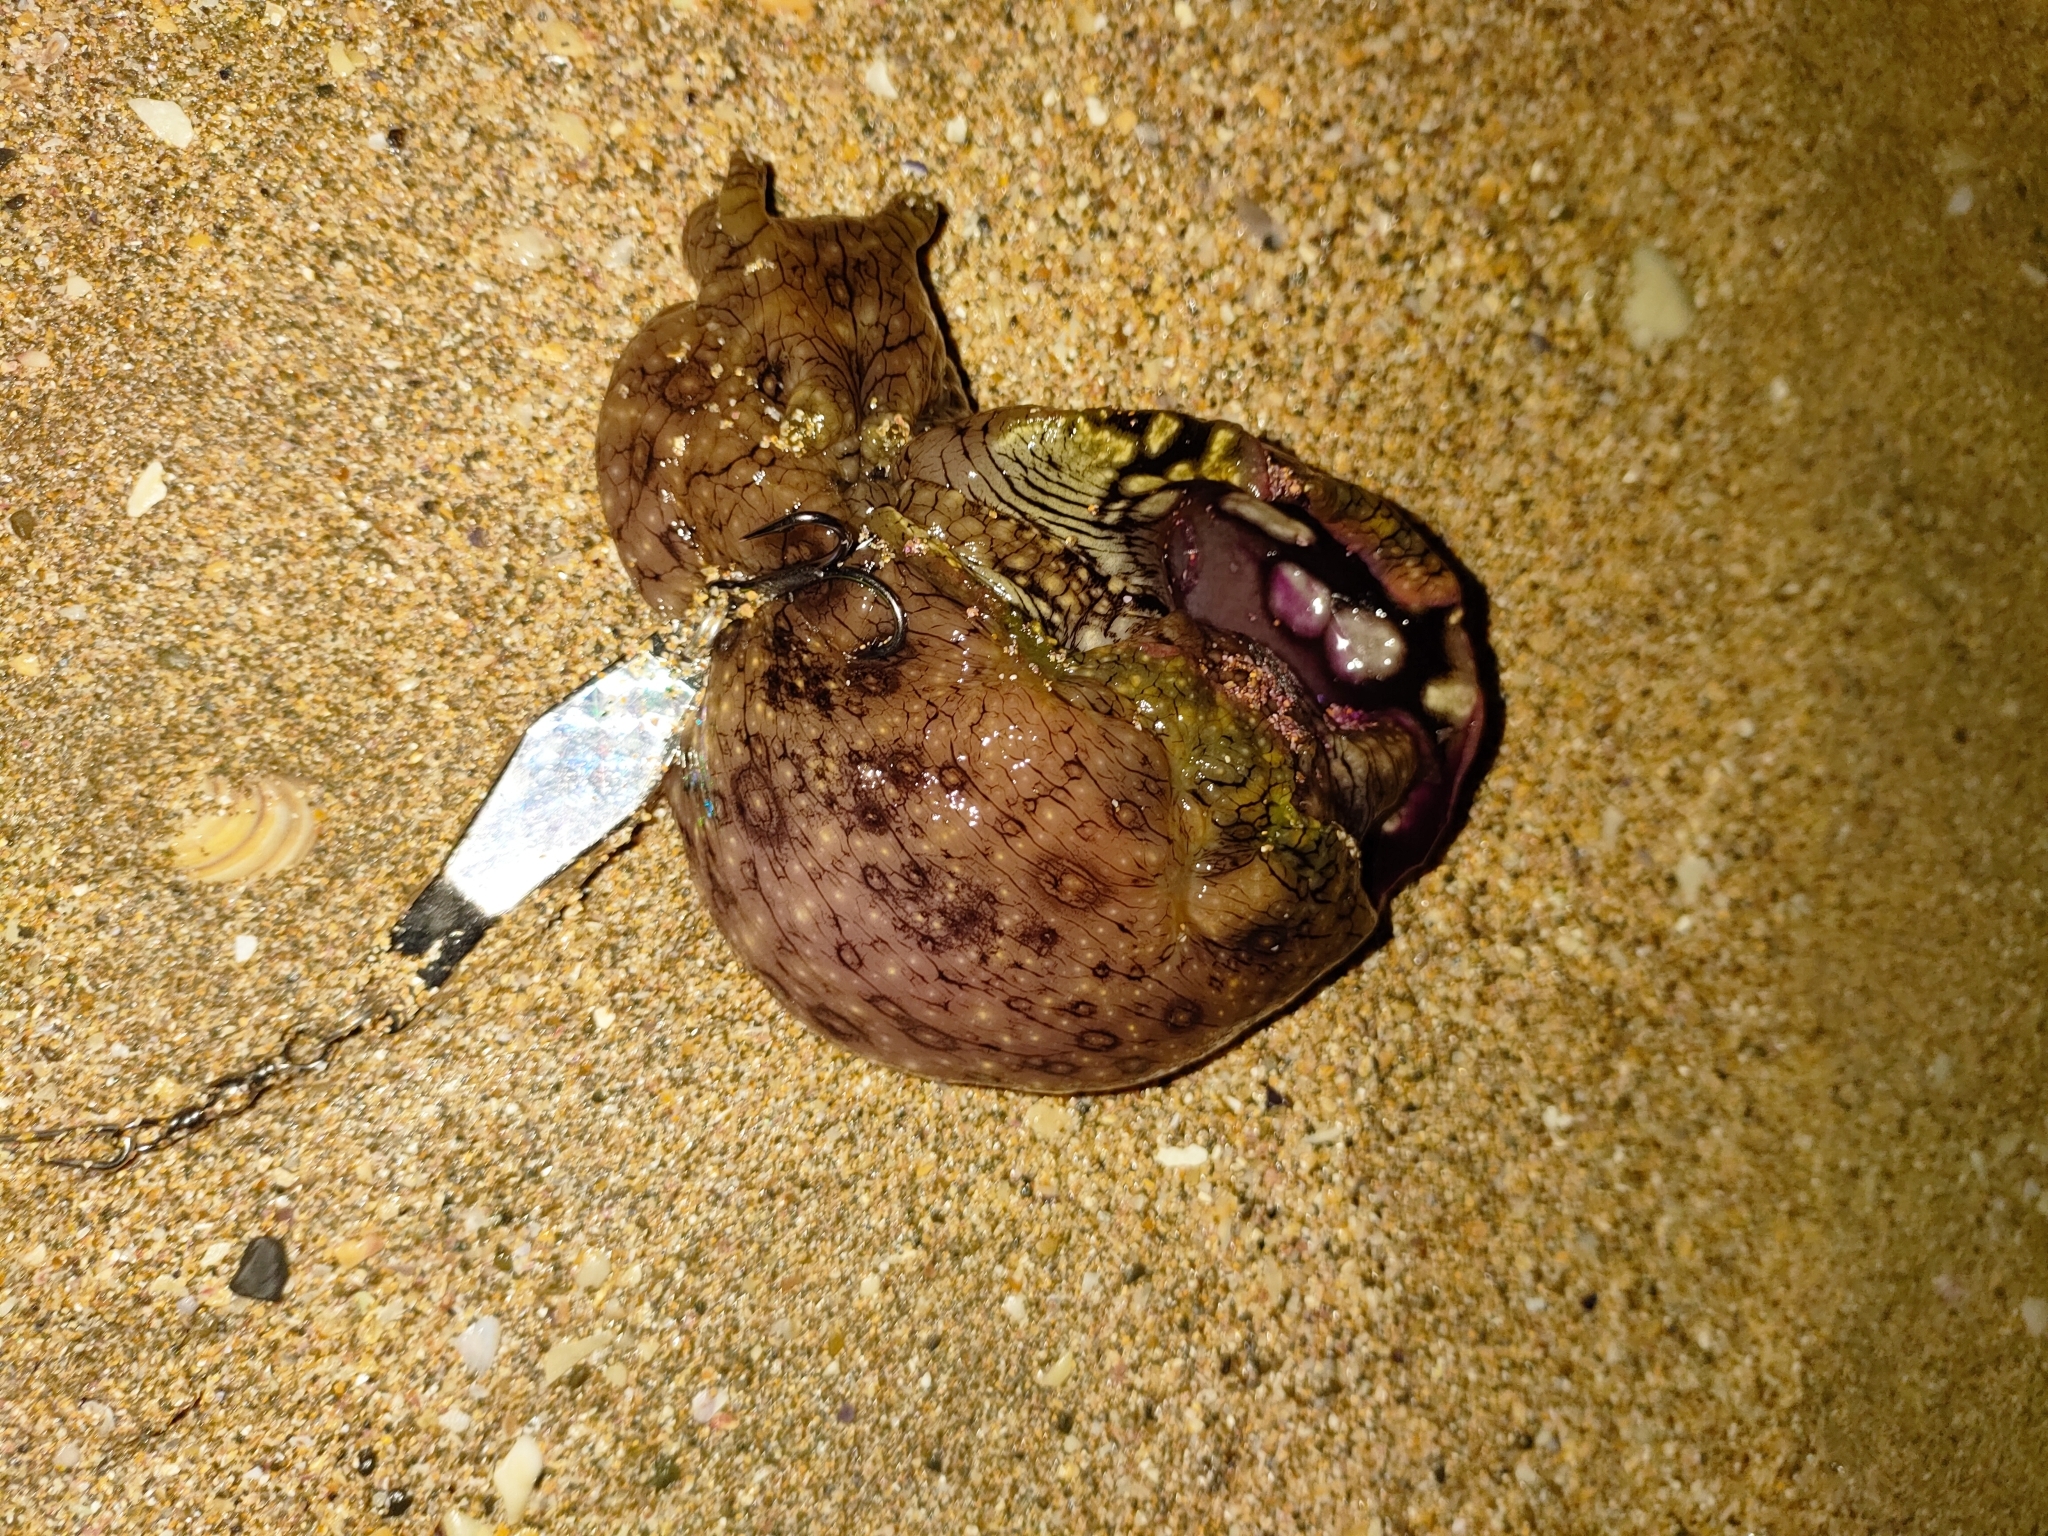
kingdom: Animalia
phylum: Mollusca
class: Gastropoda
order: Aplysiida
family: Aplysiidae
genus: Aplysia
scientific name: Aplysia argus
